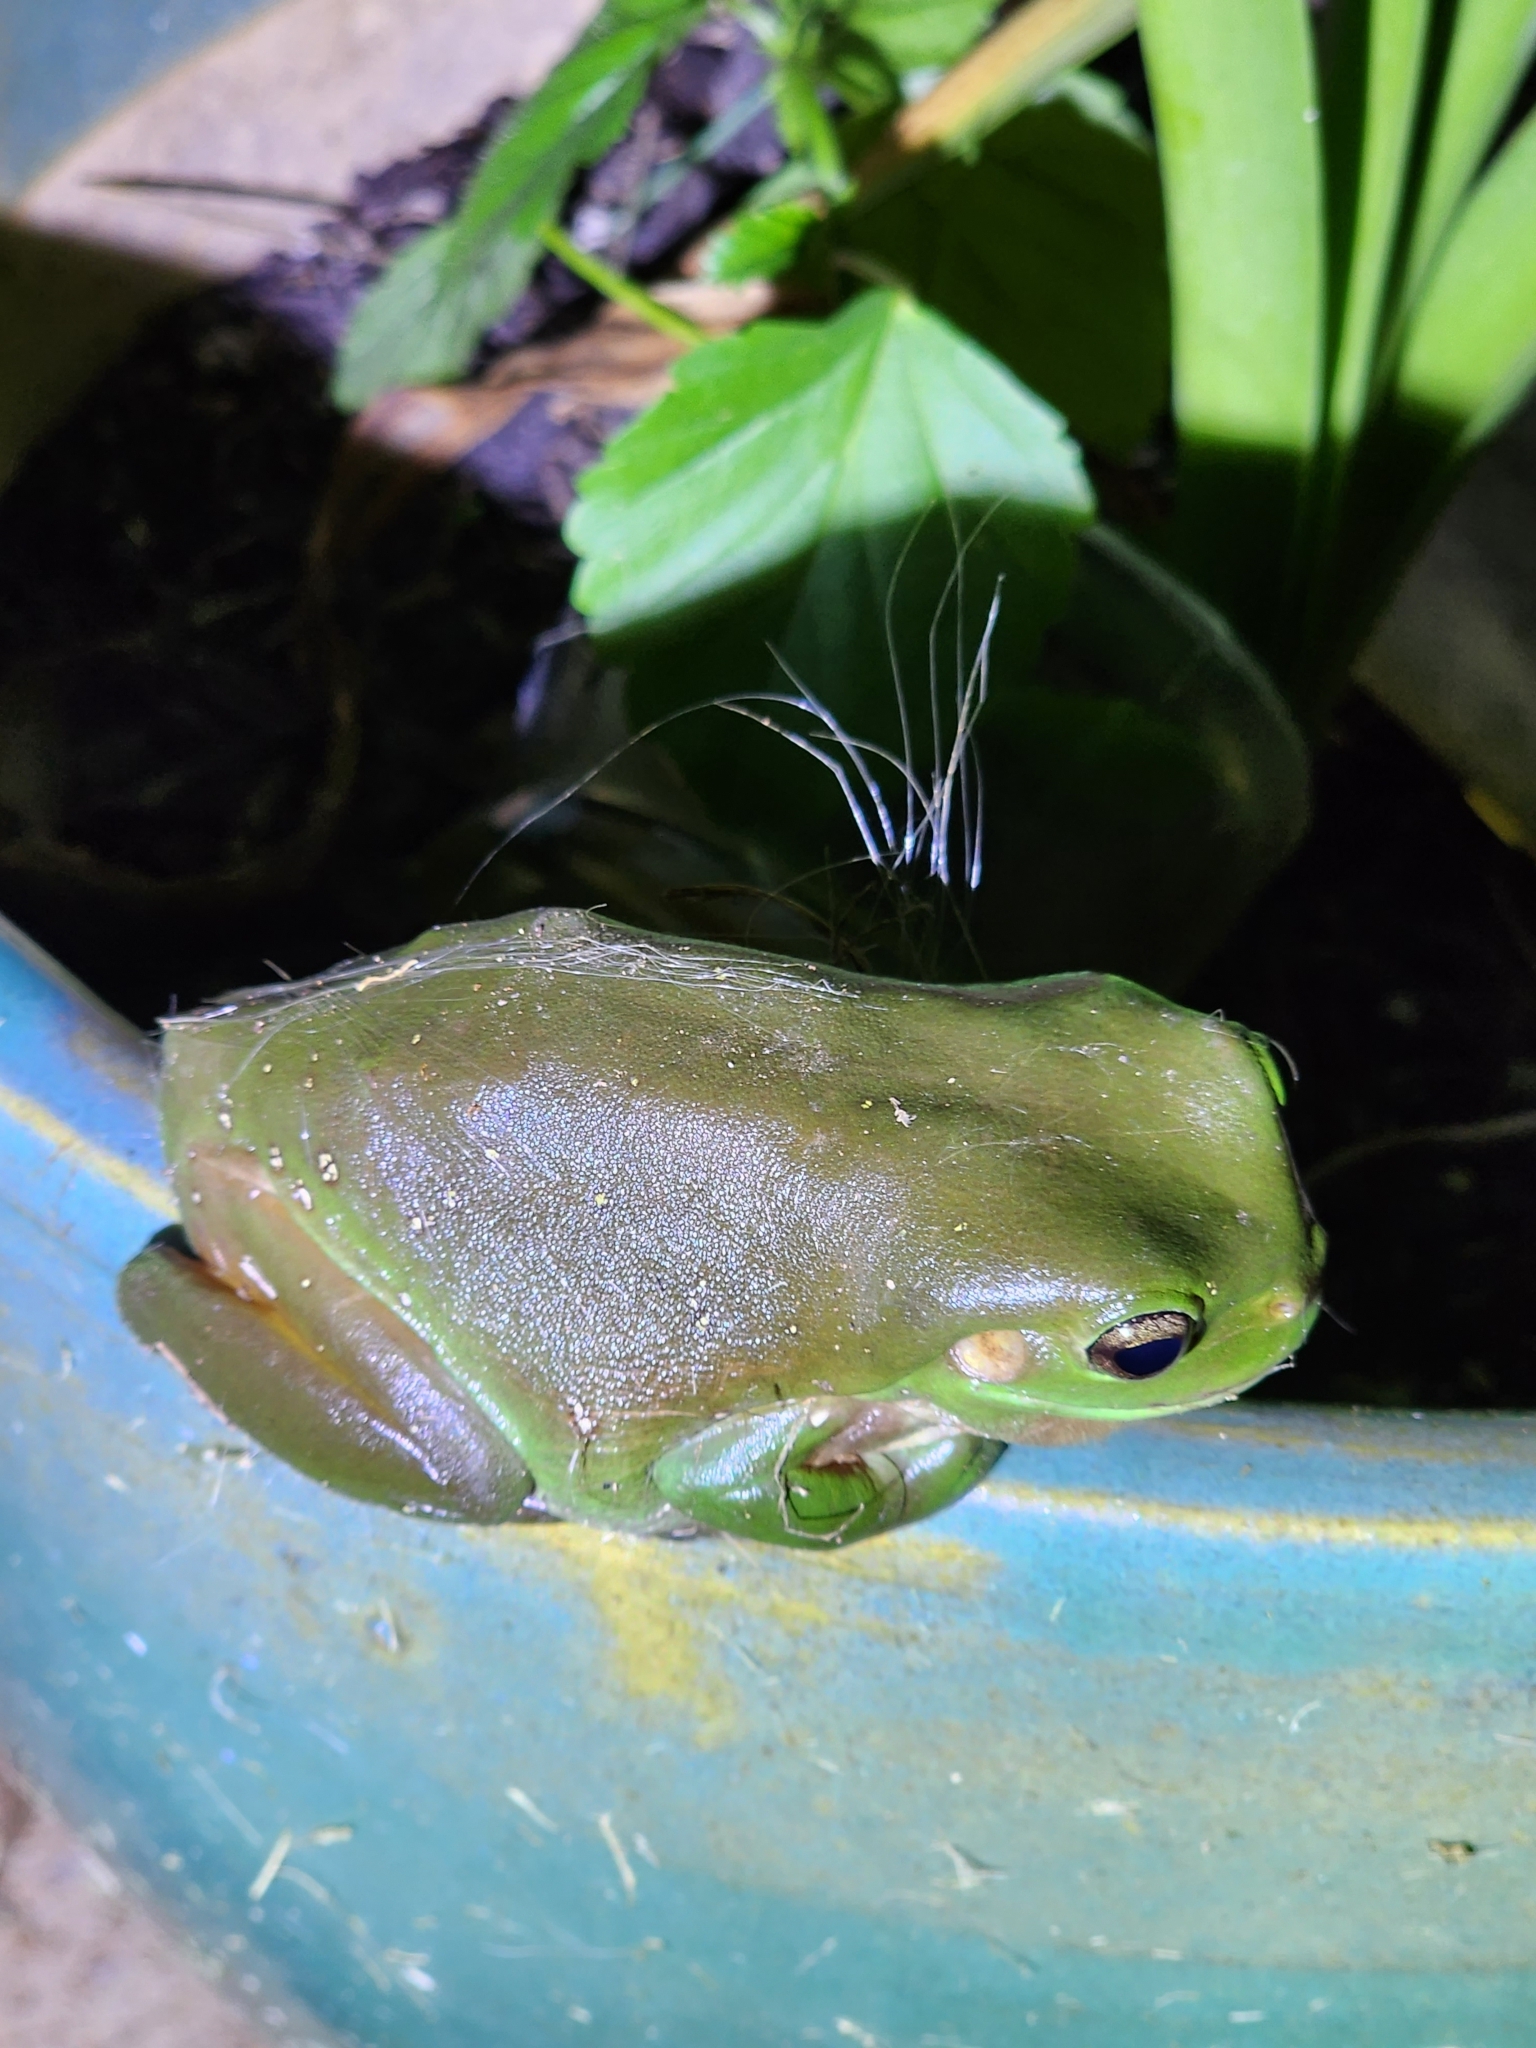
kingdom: Animalia
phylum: Chordata
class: Amphibia
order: Anura
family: Pelodryadidae
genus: Ranoidea
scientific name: Ranoidea caerulea
